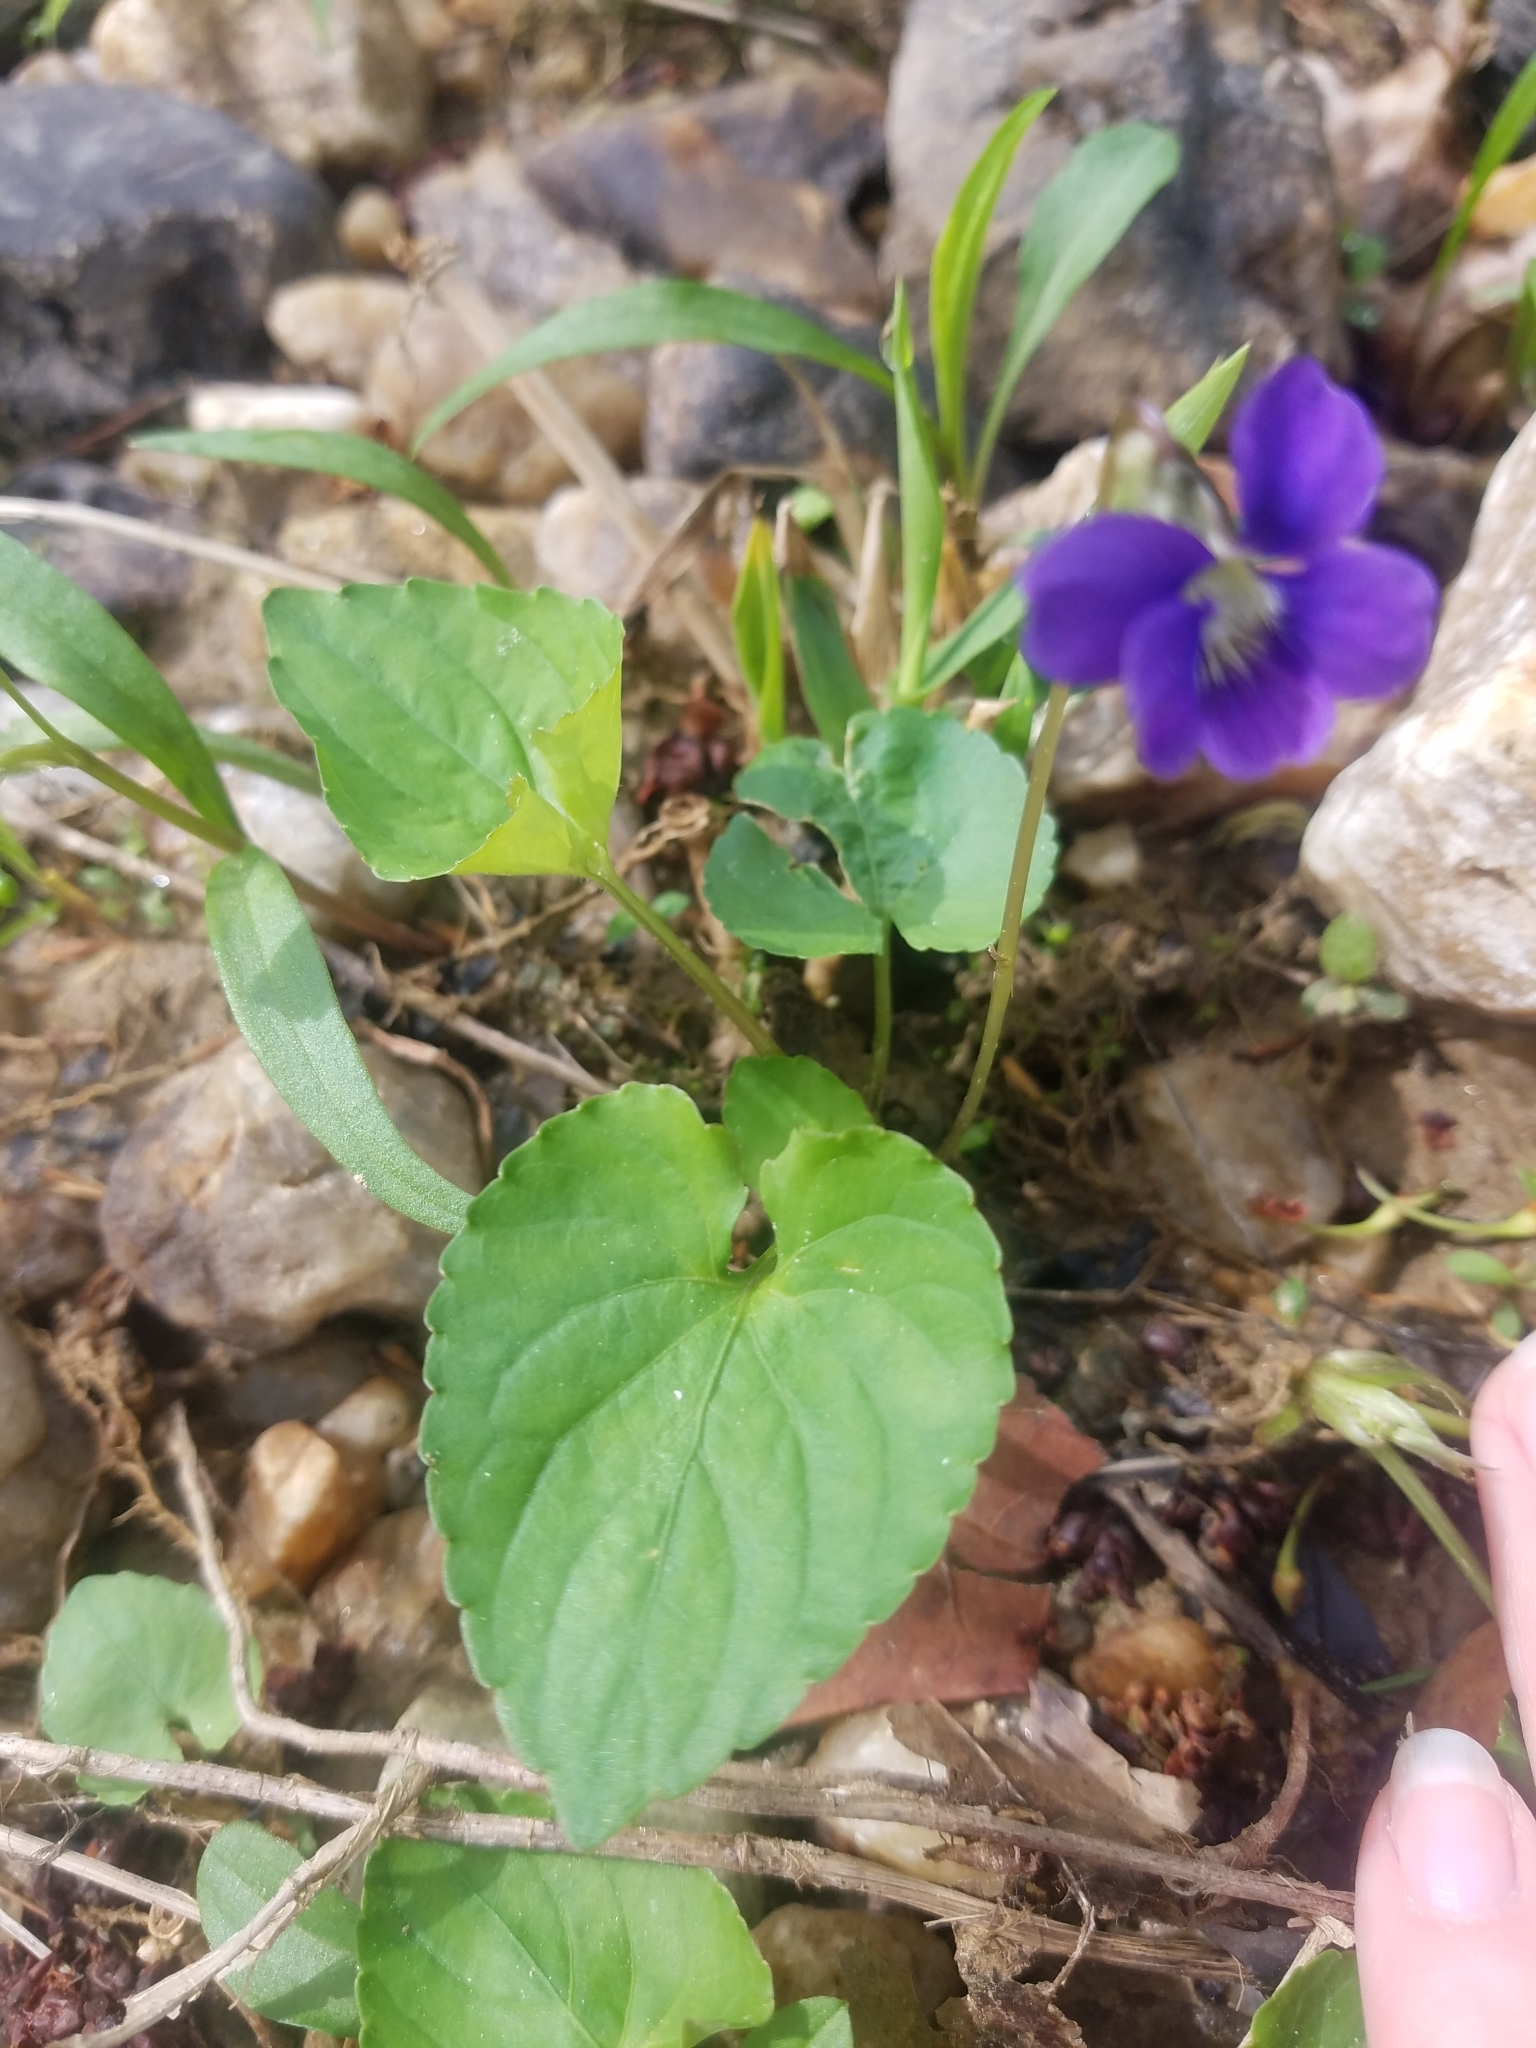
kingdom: Plantae
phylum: Tracheophyta
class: Magnoliopsida
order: Malpighiales
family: Violaceae
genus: Viola
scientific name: Viola sororia
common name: Dooryard violet
